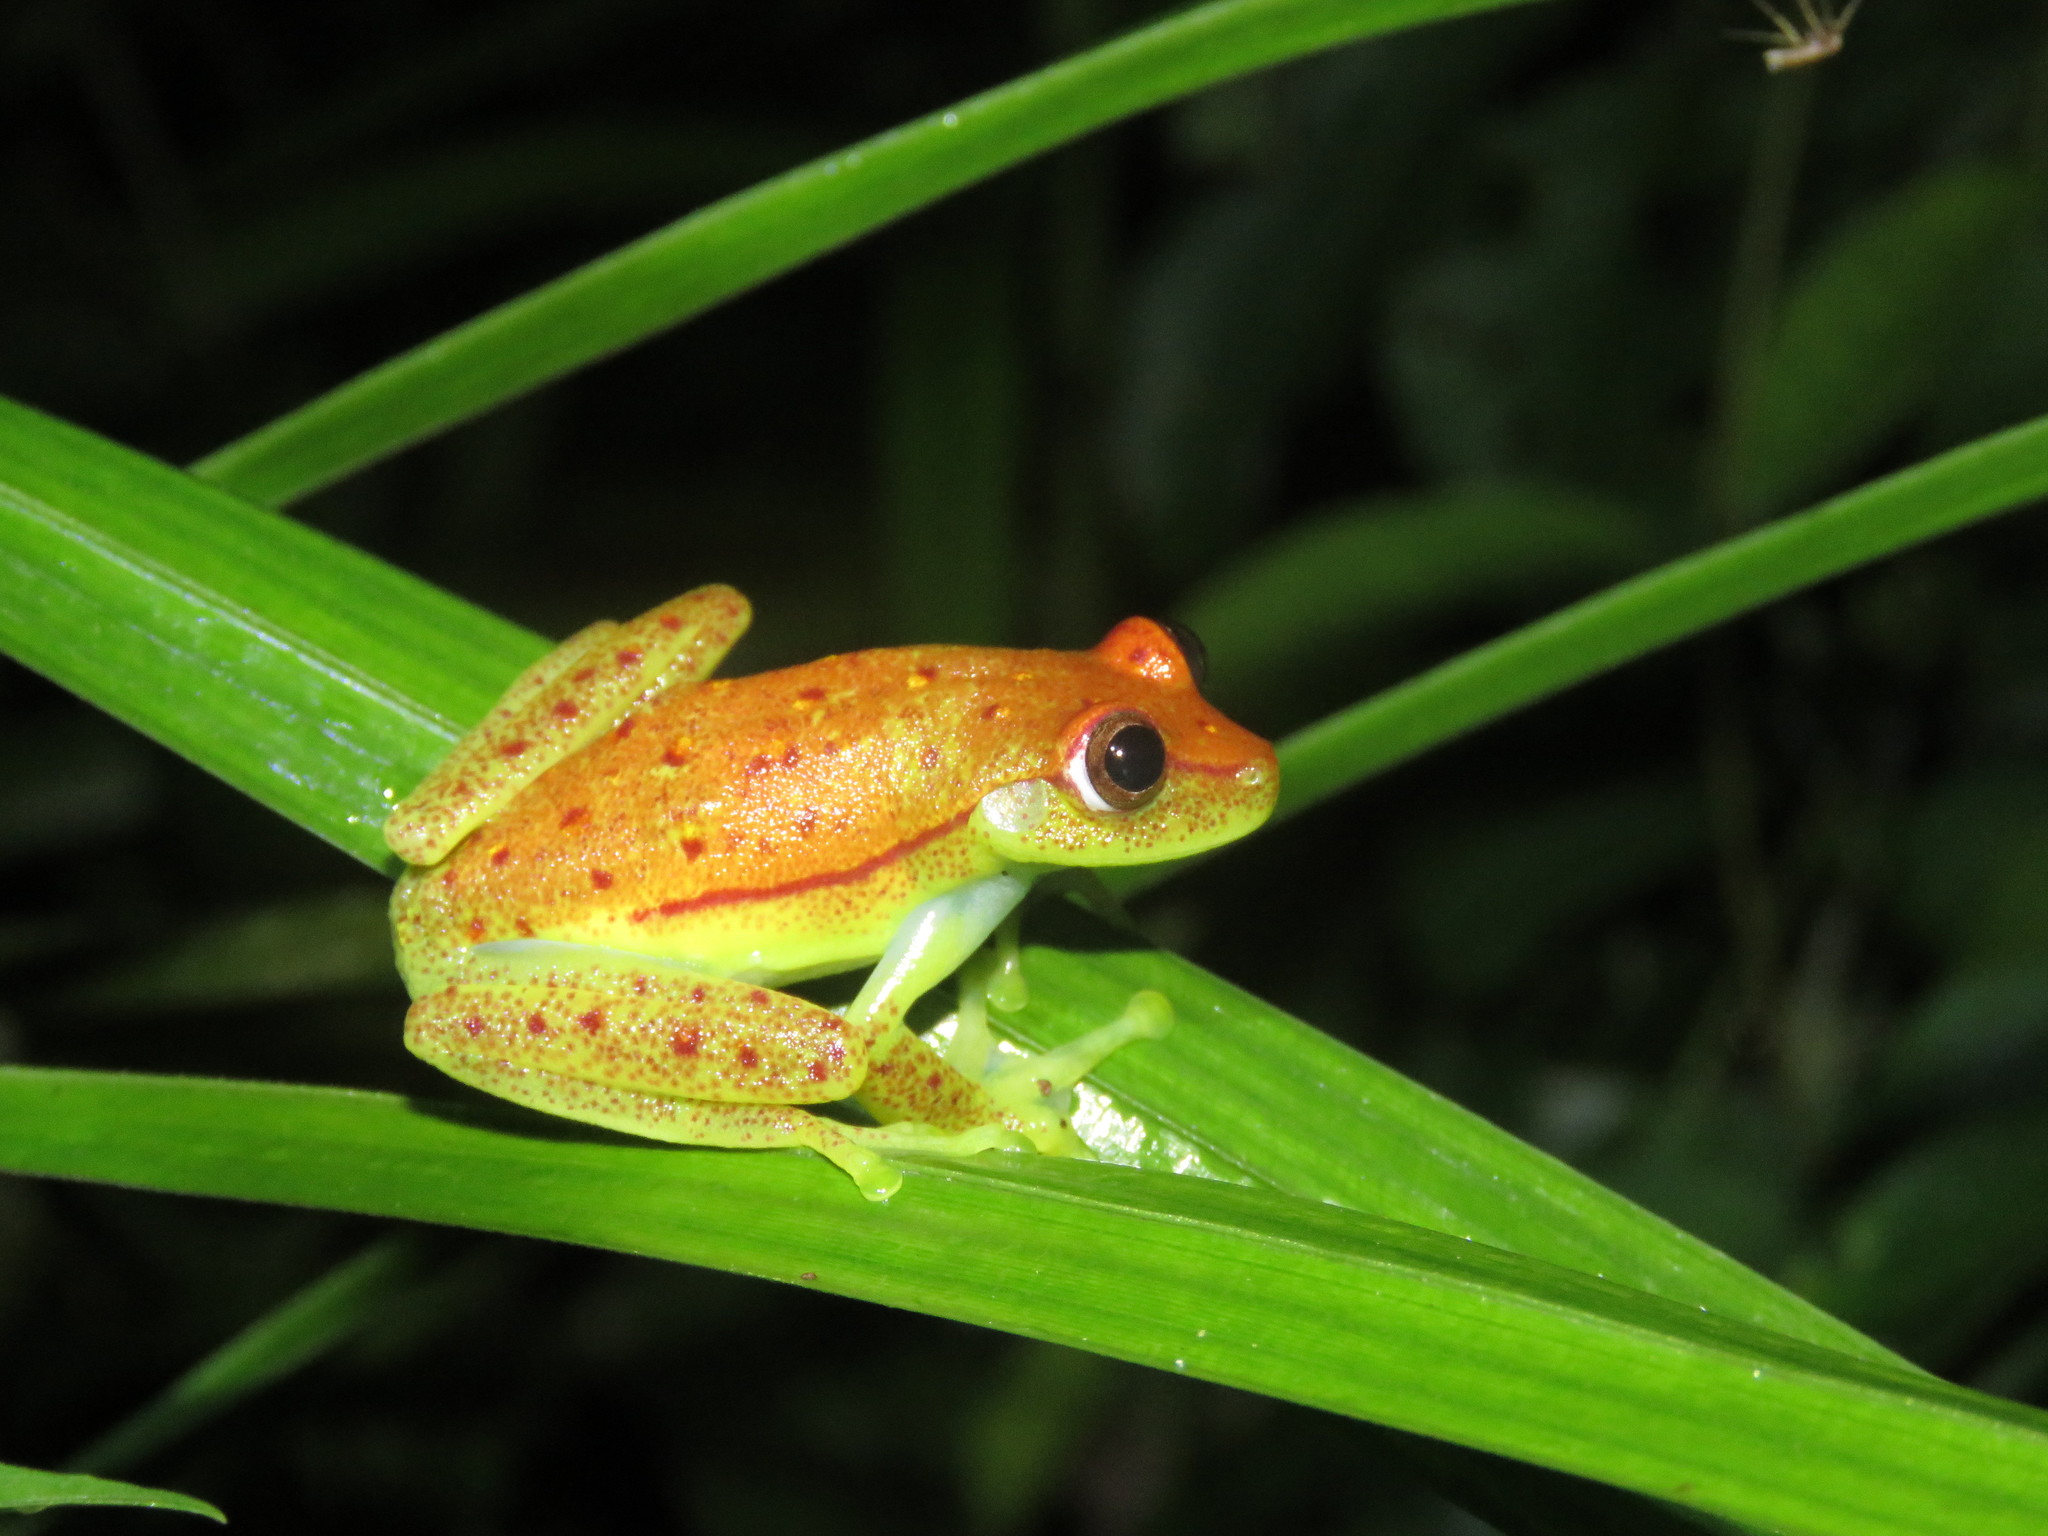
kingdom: Animalia
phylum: Chordata
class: Amphibia
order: Anura
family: Hylidae
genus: Boana
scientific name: Boana punctata
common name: Polka-dot treefrog
